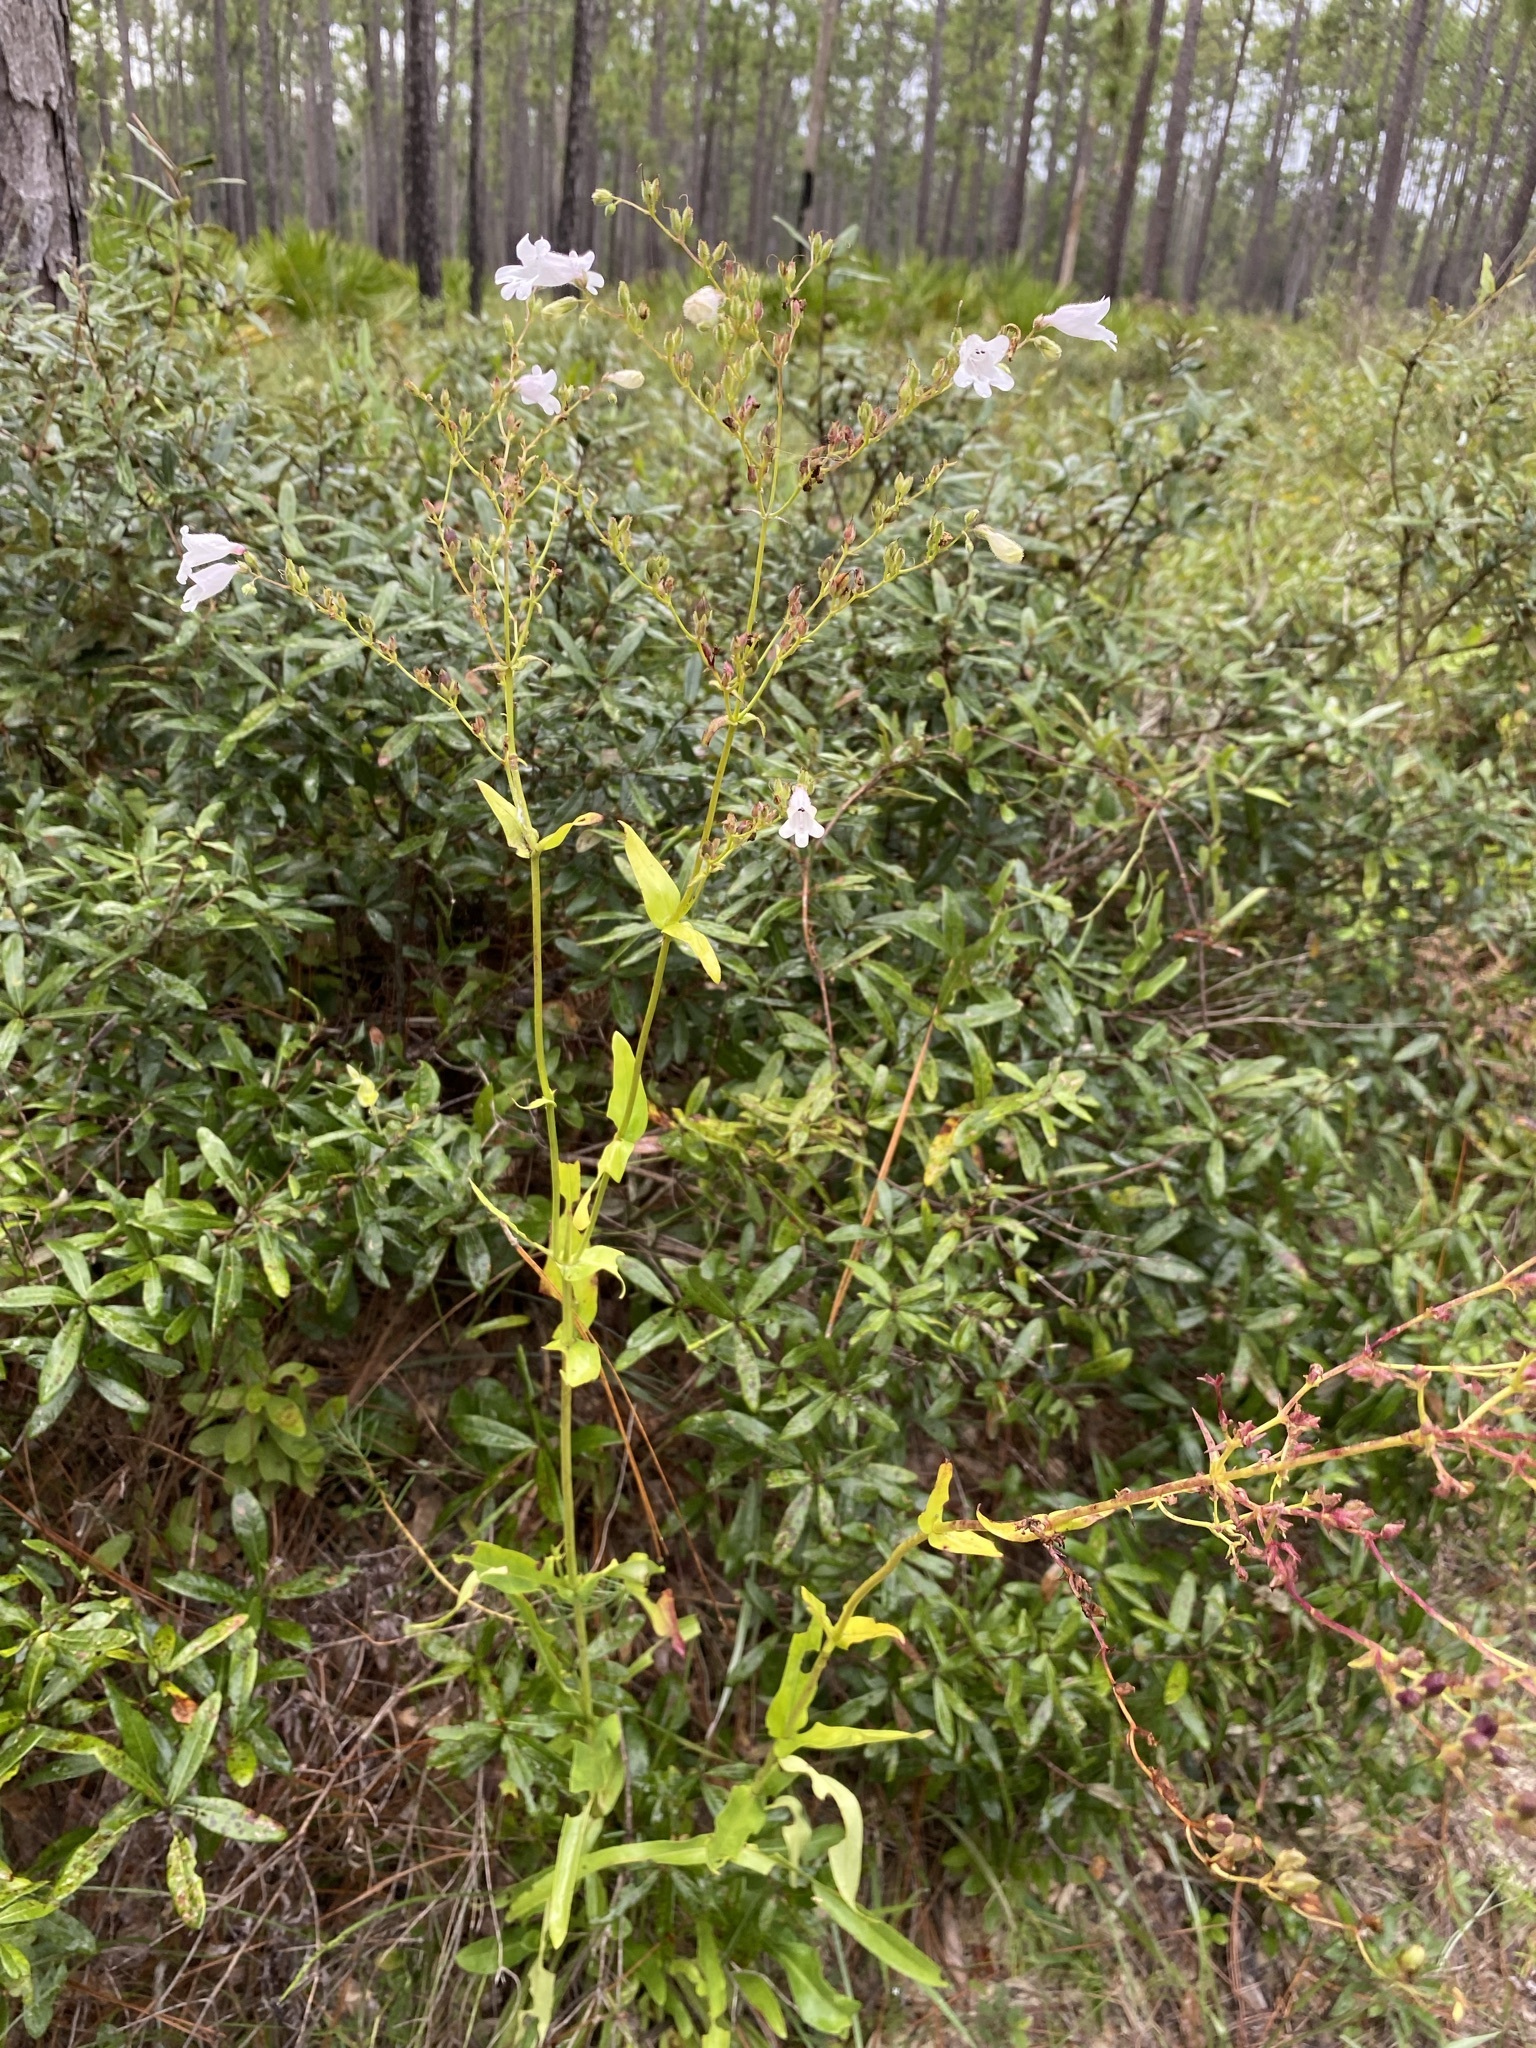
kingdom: Plantae
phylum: Tracheophyta
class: Magnoliopsida
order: Lamiales
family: Plantaginaceae
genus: Penstemon
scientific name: Penstemon multiflorus
